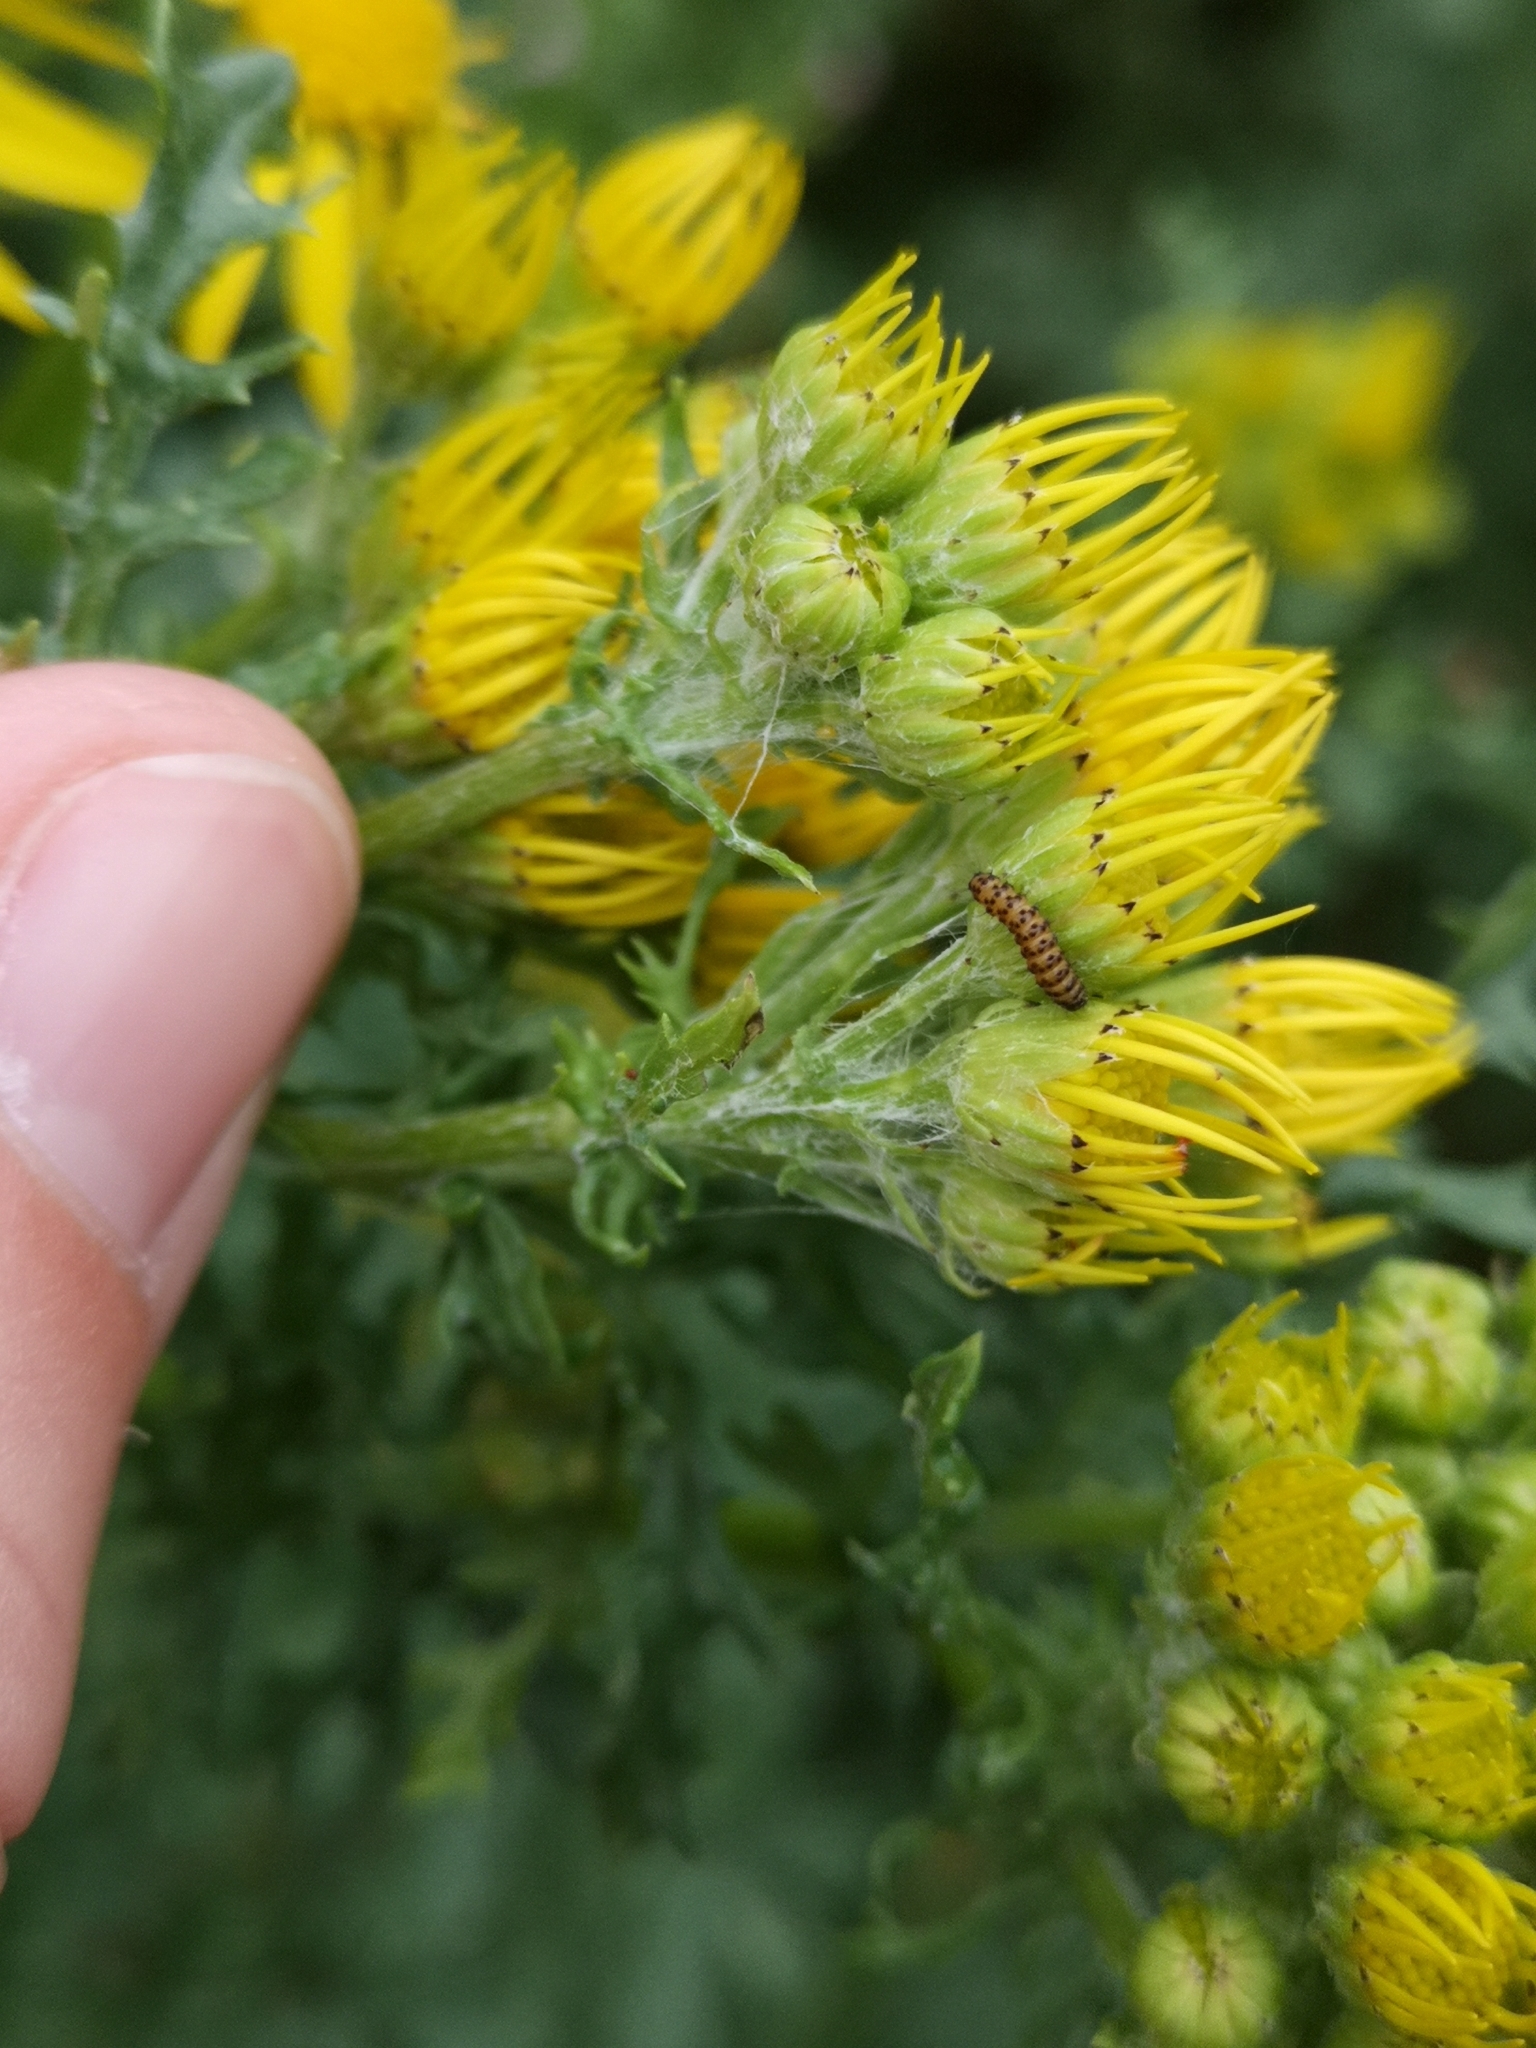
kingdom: Animalia
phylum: Arthropoda
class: Insecta
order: Lepidoptera
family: Erebidae
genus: Tyria
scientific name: Tyria jacobaeae
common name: Cinnabar
